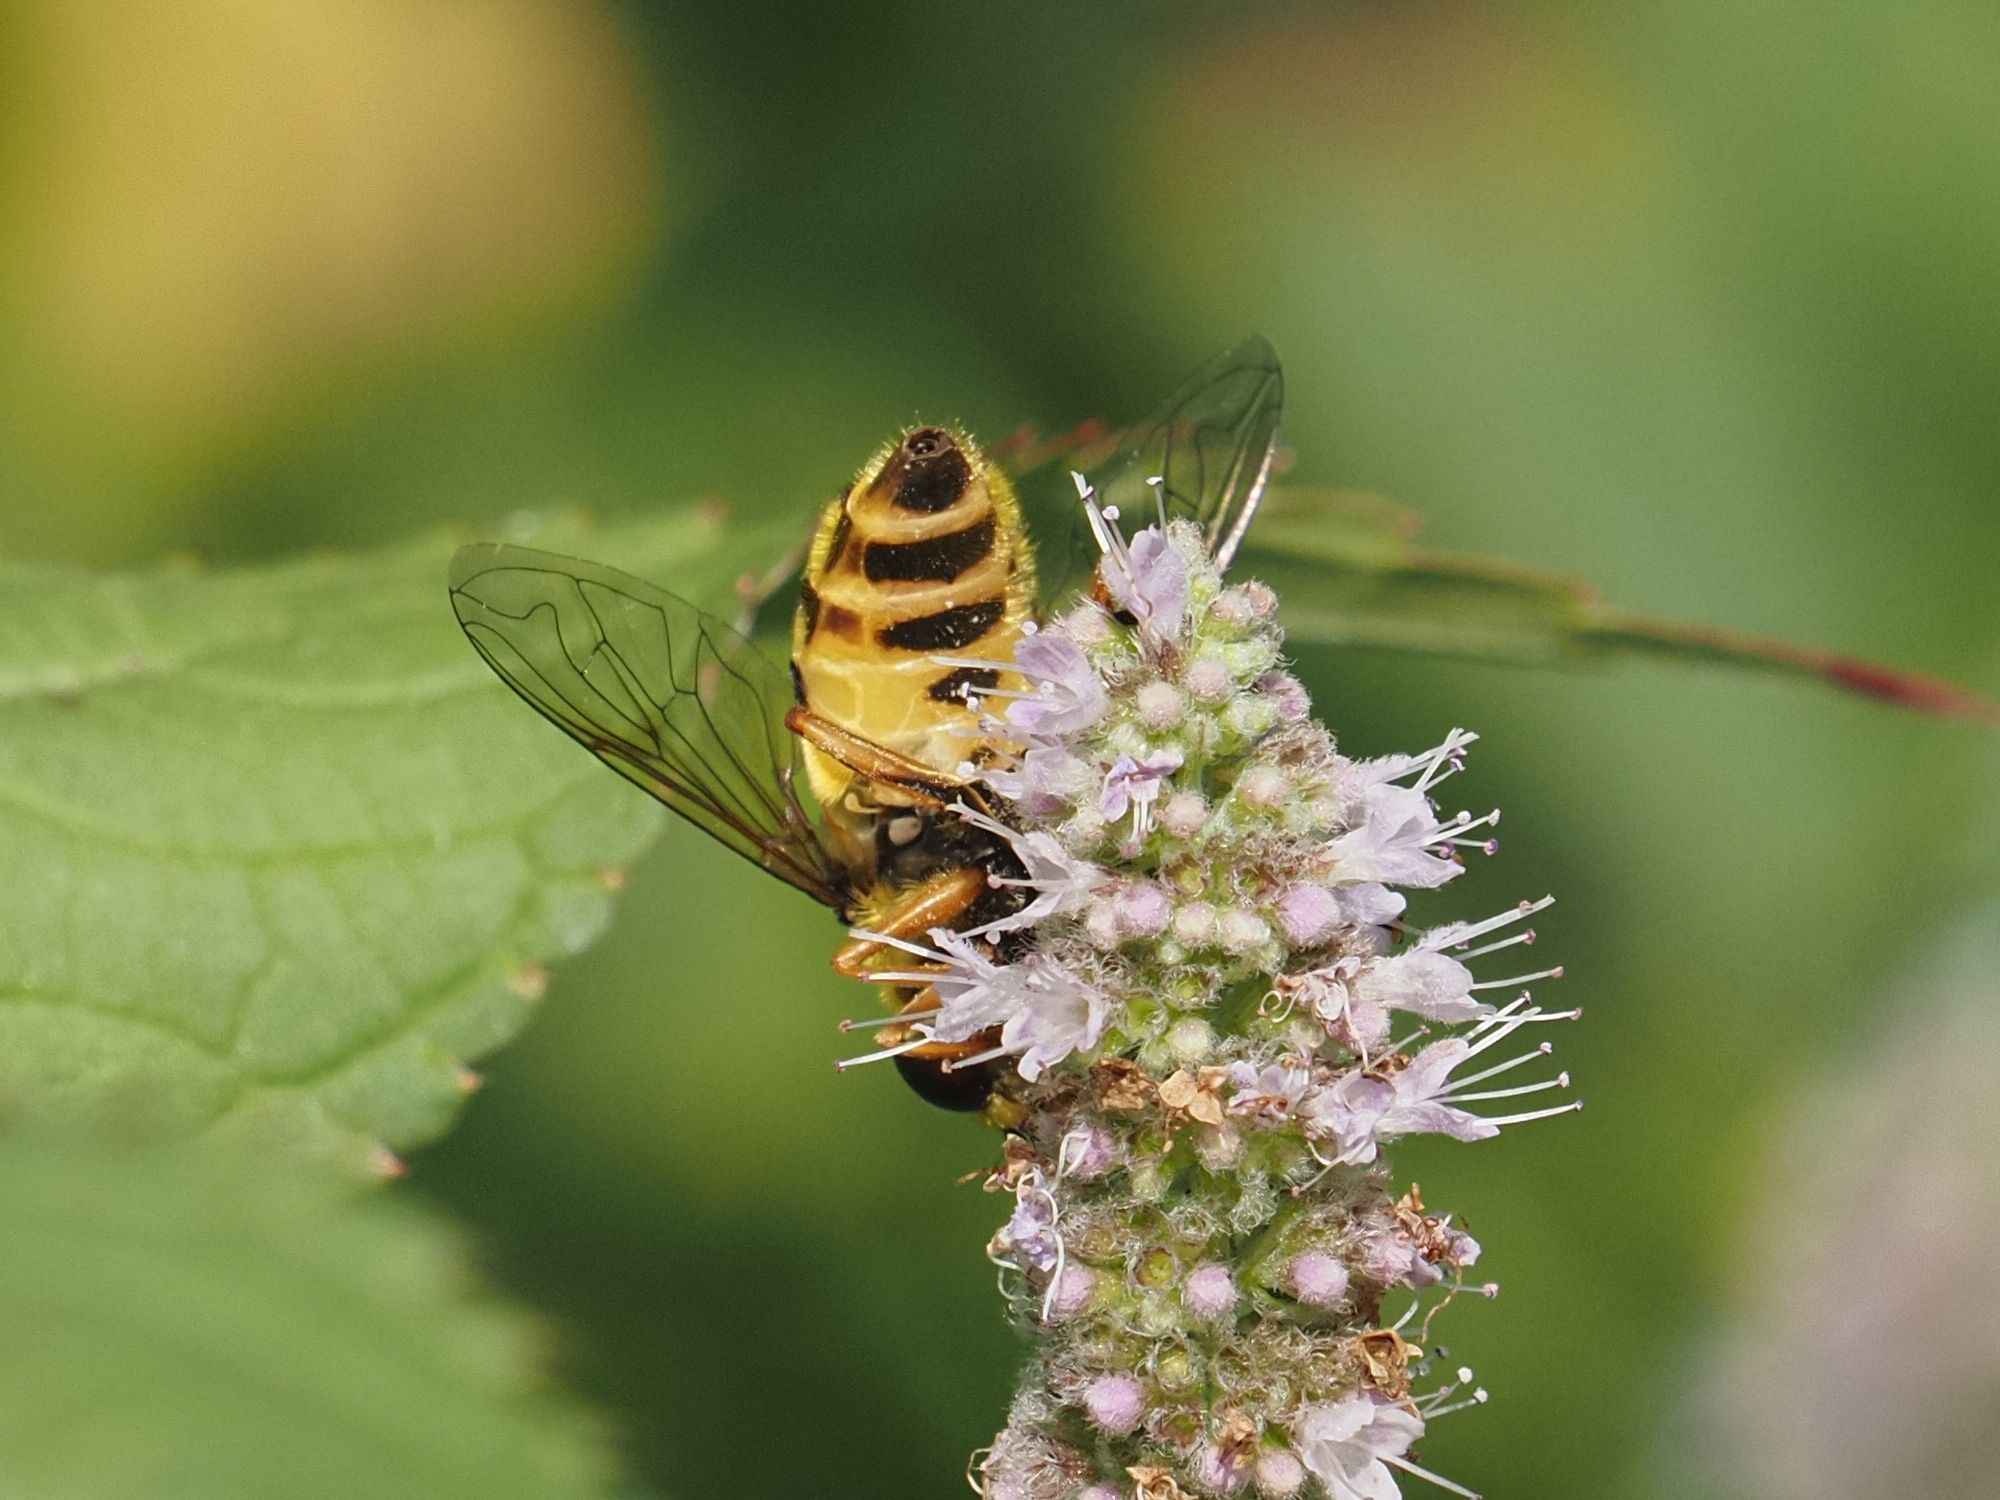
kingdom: Animalia
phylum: Arthropoda
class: Insecta
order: Diptera
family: Syrphidae
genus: Myathropa
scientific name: Myathropa florea
